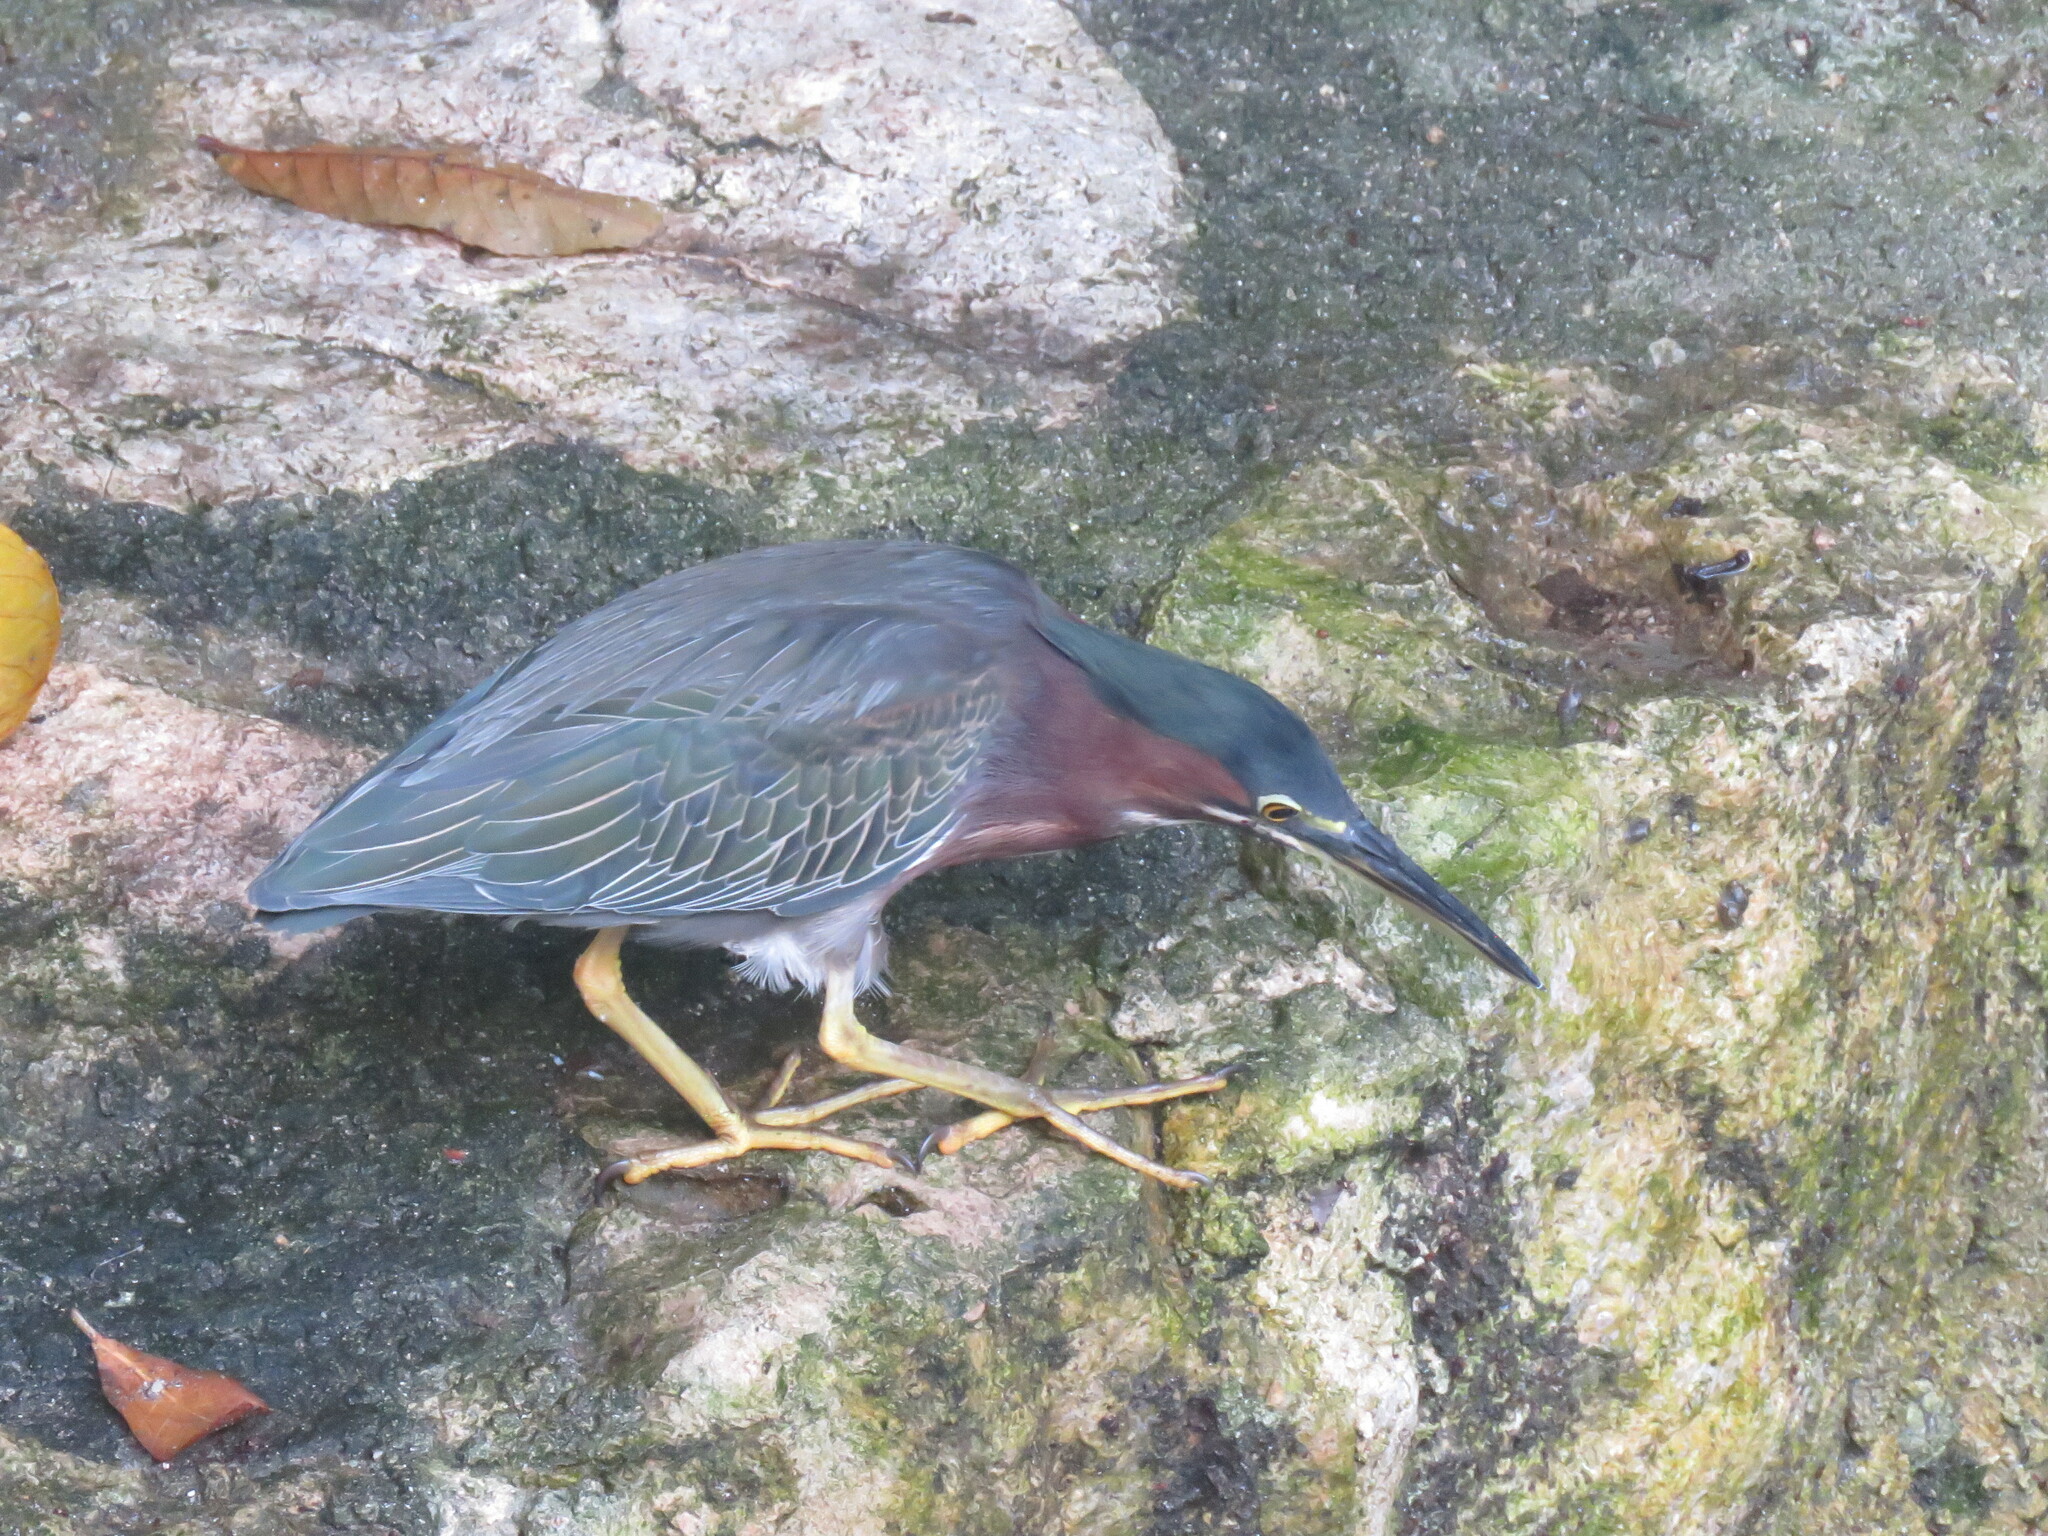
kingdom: Animalia
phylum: Chordata
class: Aves
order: Pelecaniformes
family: Ardeidae
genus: Butorides
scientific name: Butorides virescens
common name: Green heron
